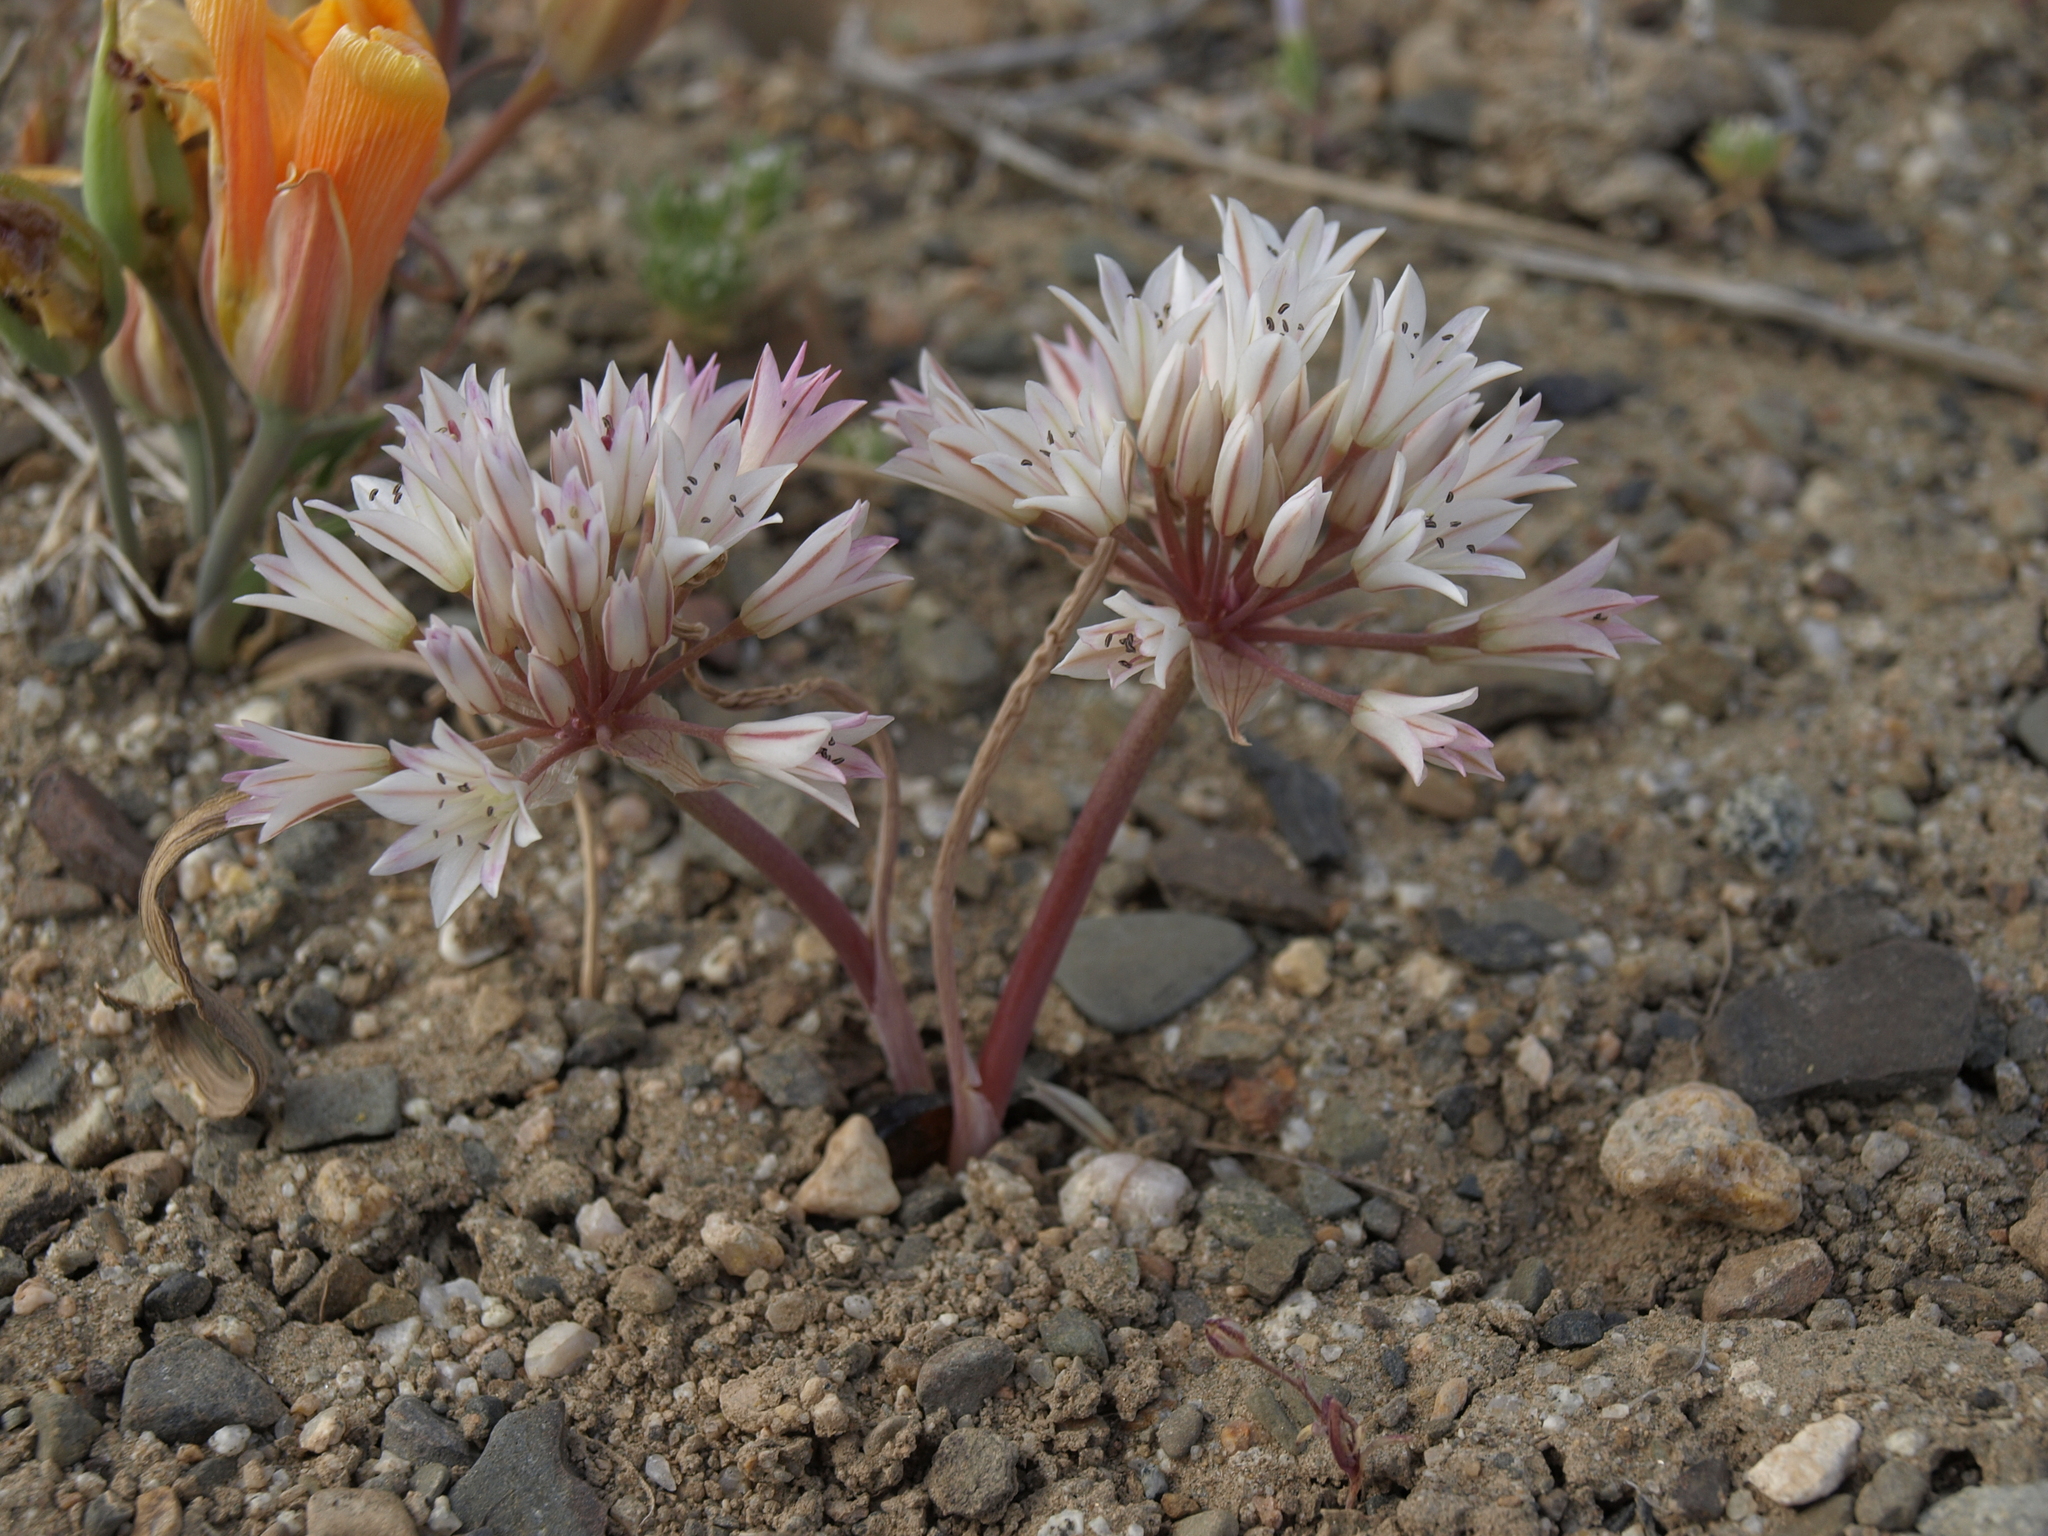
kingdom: Plantae
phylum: Tracheophyta
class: Liliopsida
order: Asparagales
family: Amaryllidaceae
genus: Allium
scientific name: Allium atrorubens
